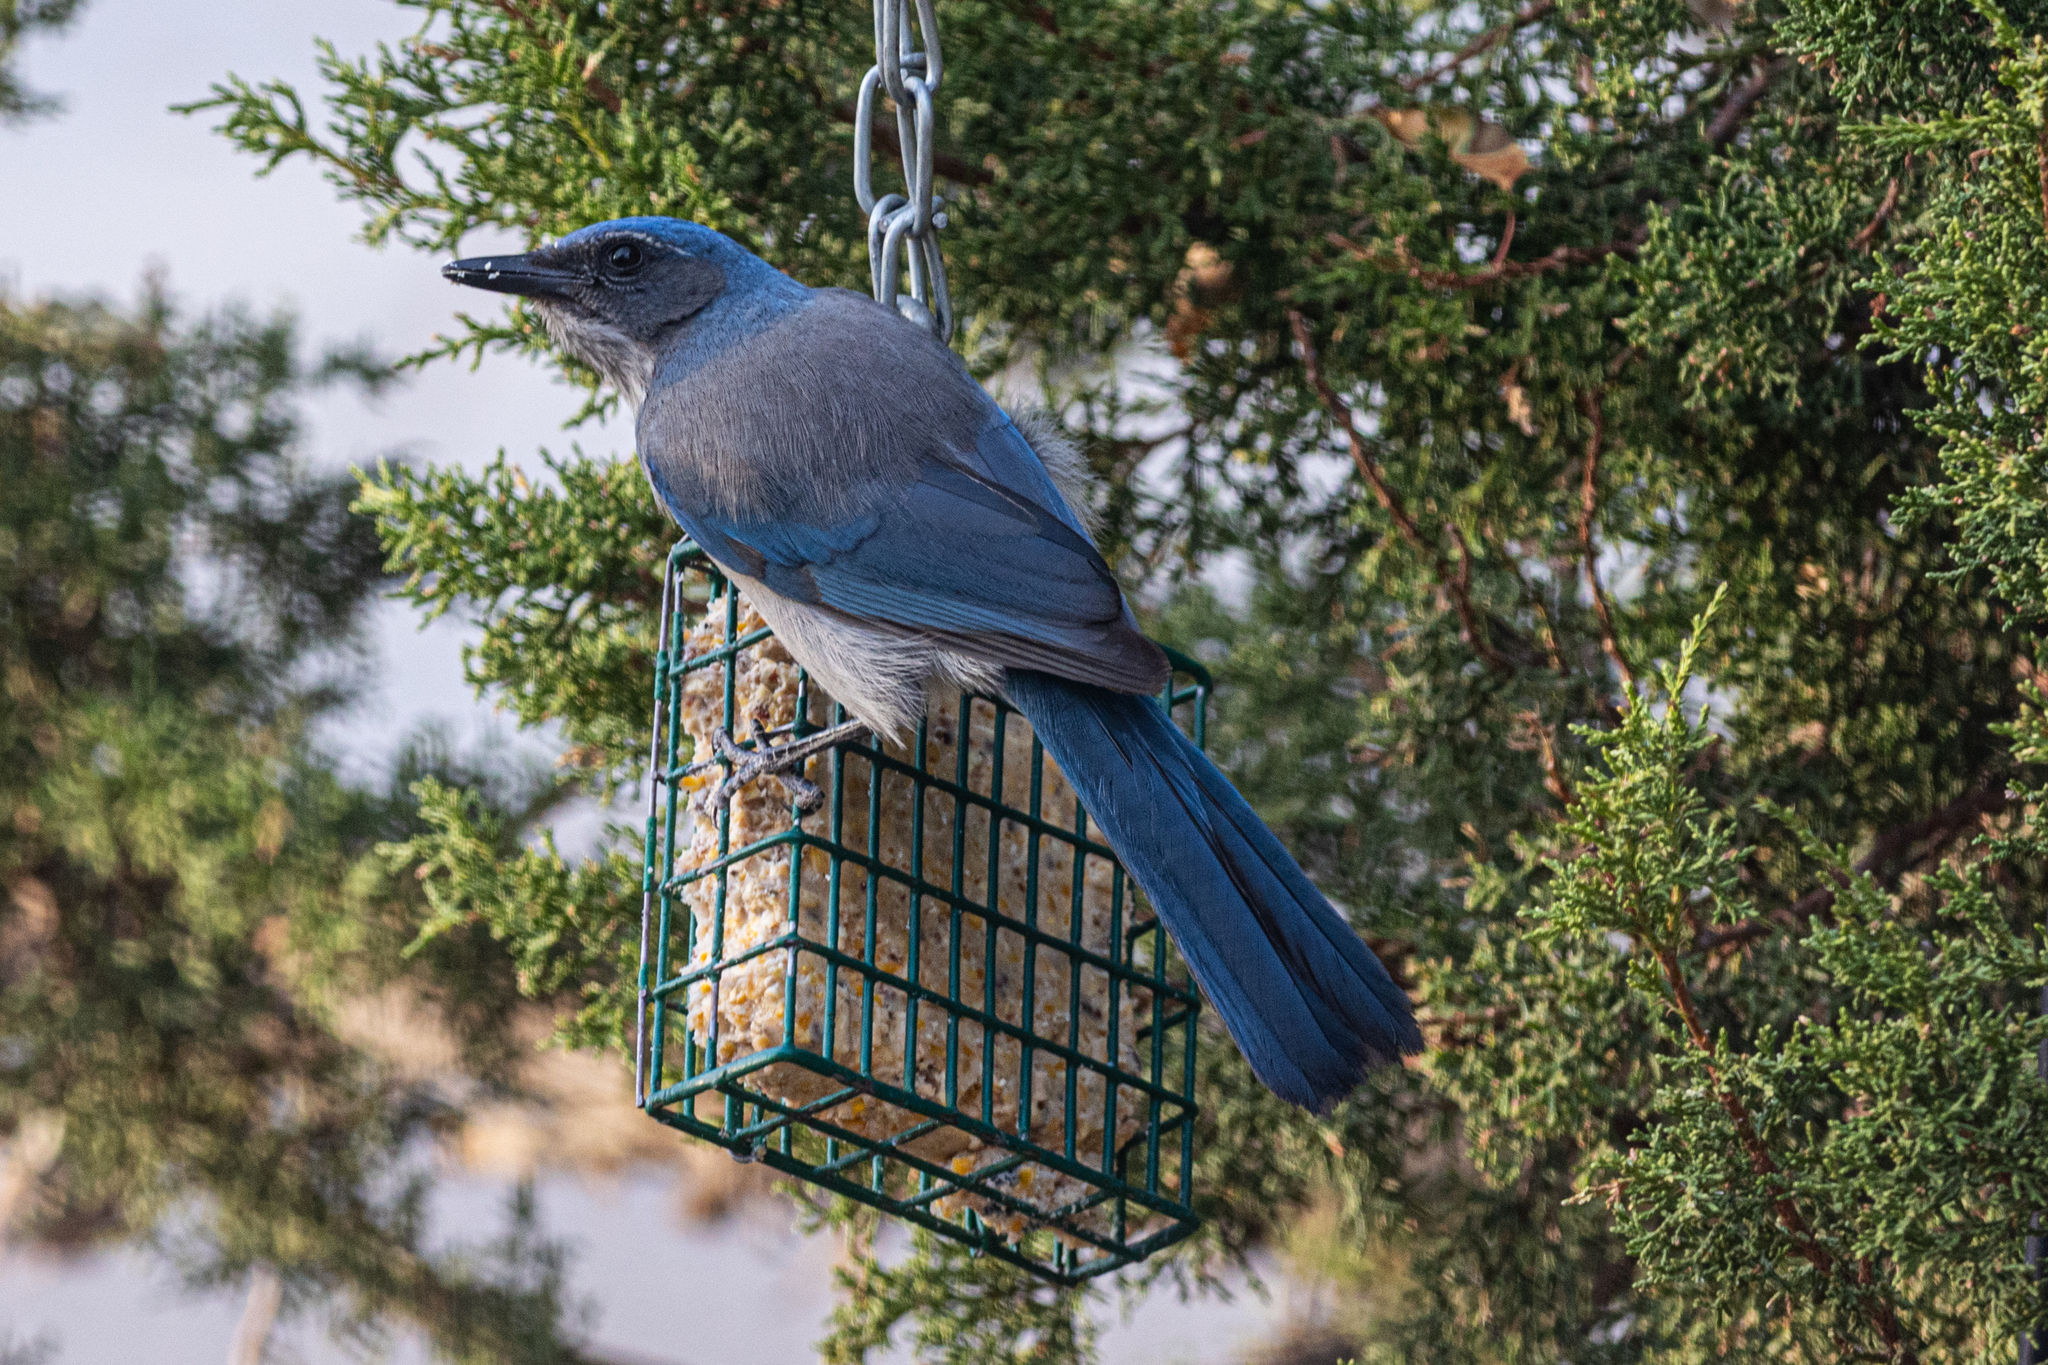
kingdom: Animalia
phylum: Chordata
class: Aves
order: Passeriformes
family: Corvidae
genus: Aphelocoma
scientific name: Aphelocoma woodhouseii
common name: Woodhouse's scrub-jay
